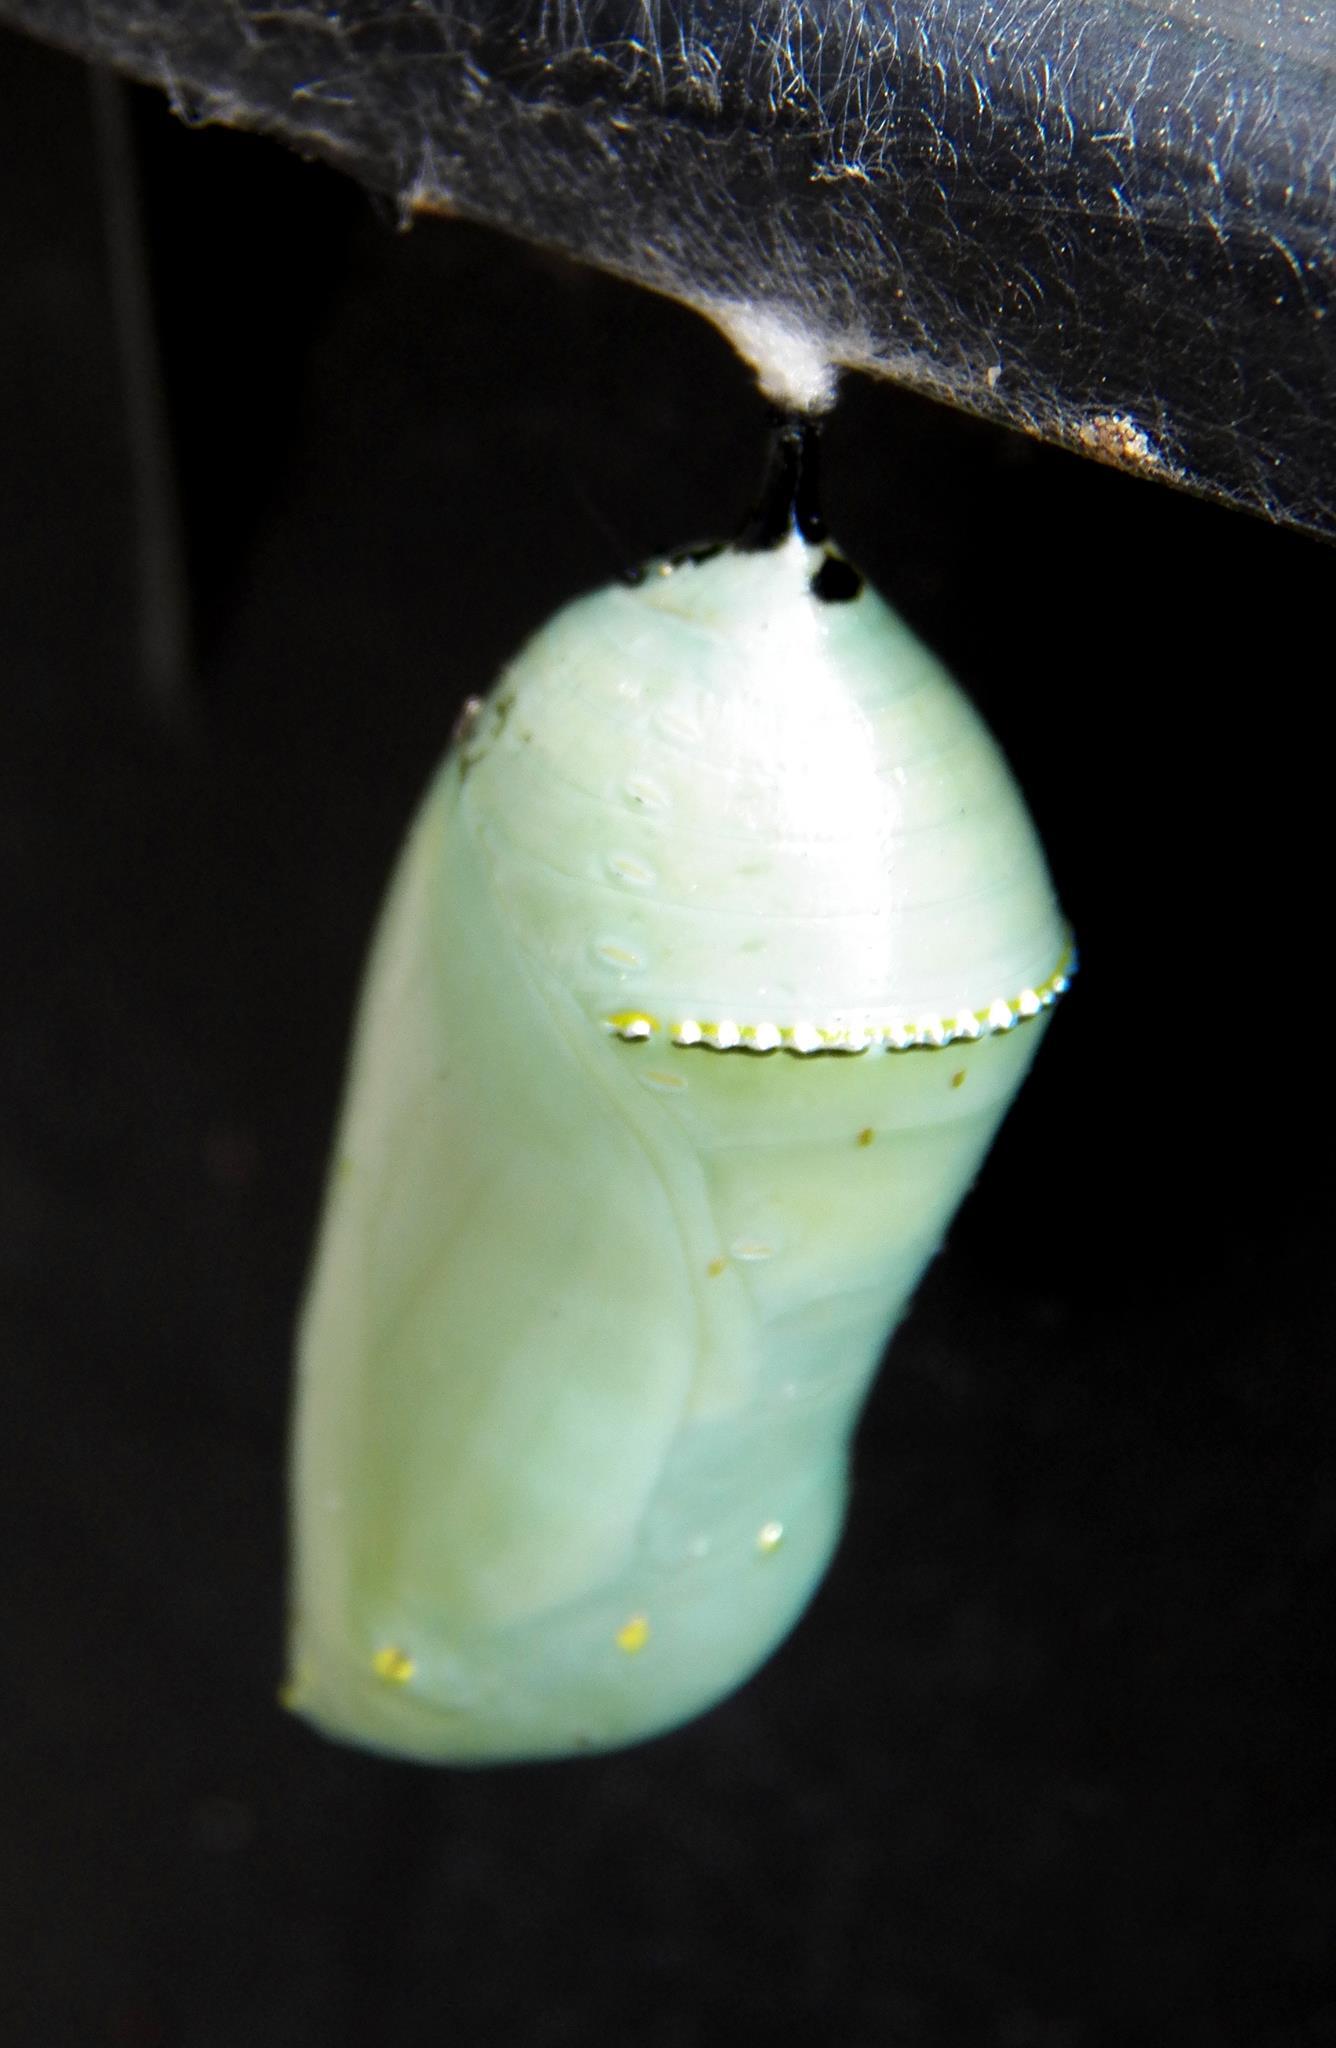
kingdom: Animalia
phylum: Arthropoda
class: Insecta
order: Lepidoptera
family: Nymphalidae
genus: Danaus
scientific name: Danaus plexippus
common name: Monarch
